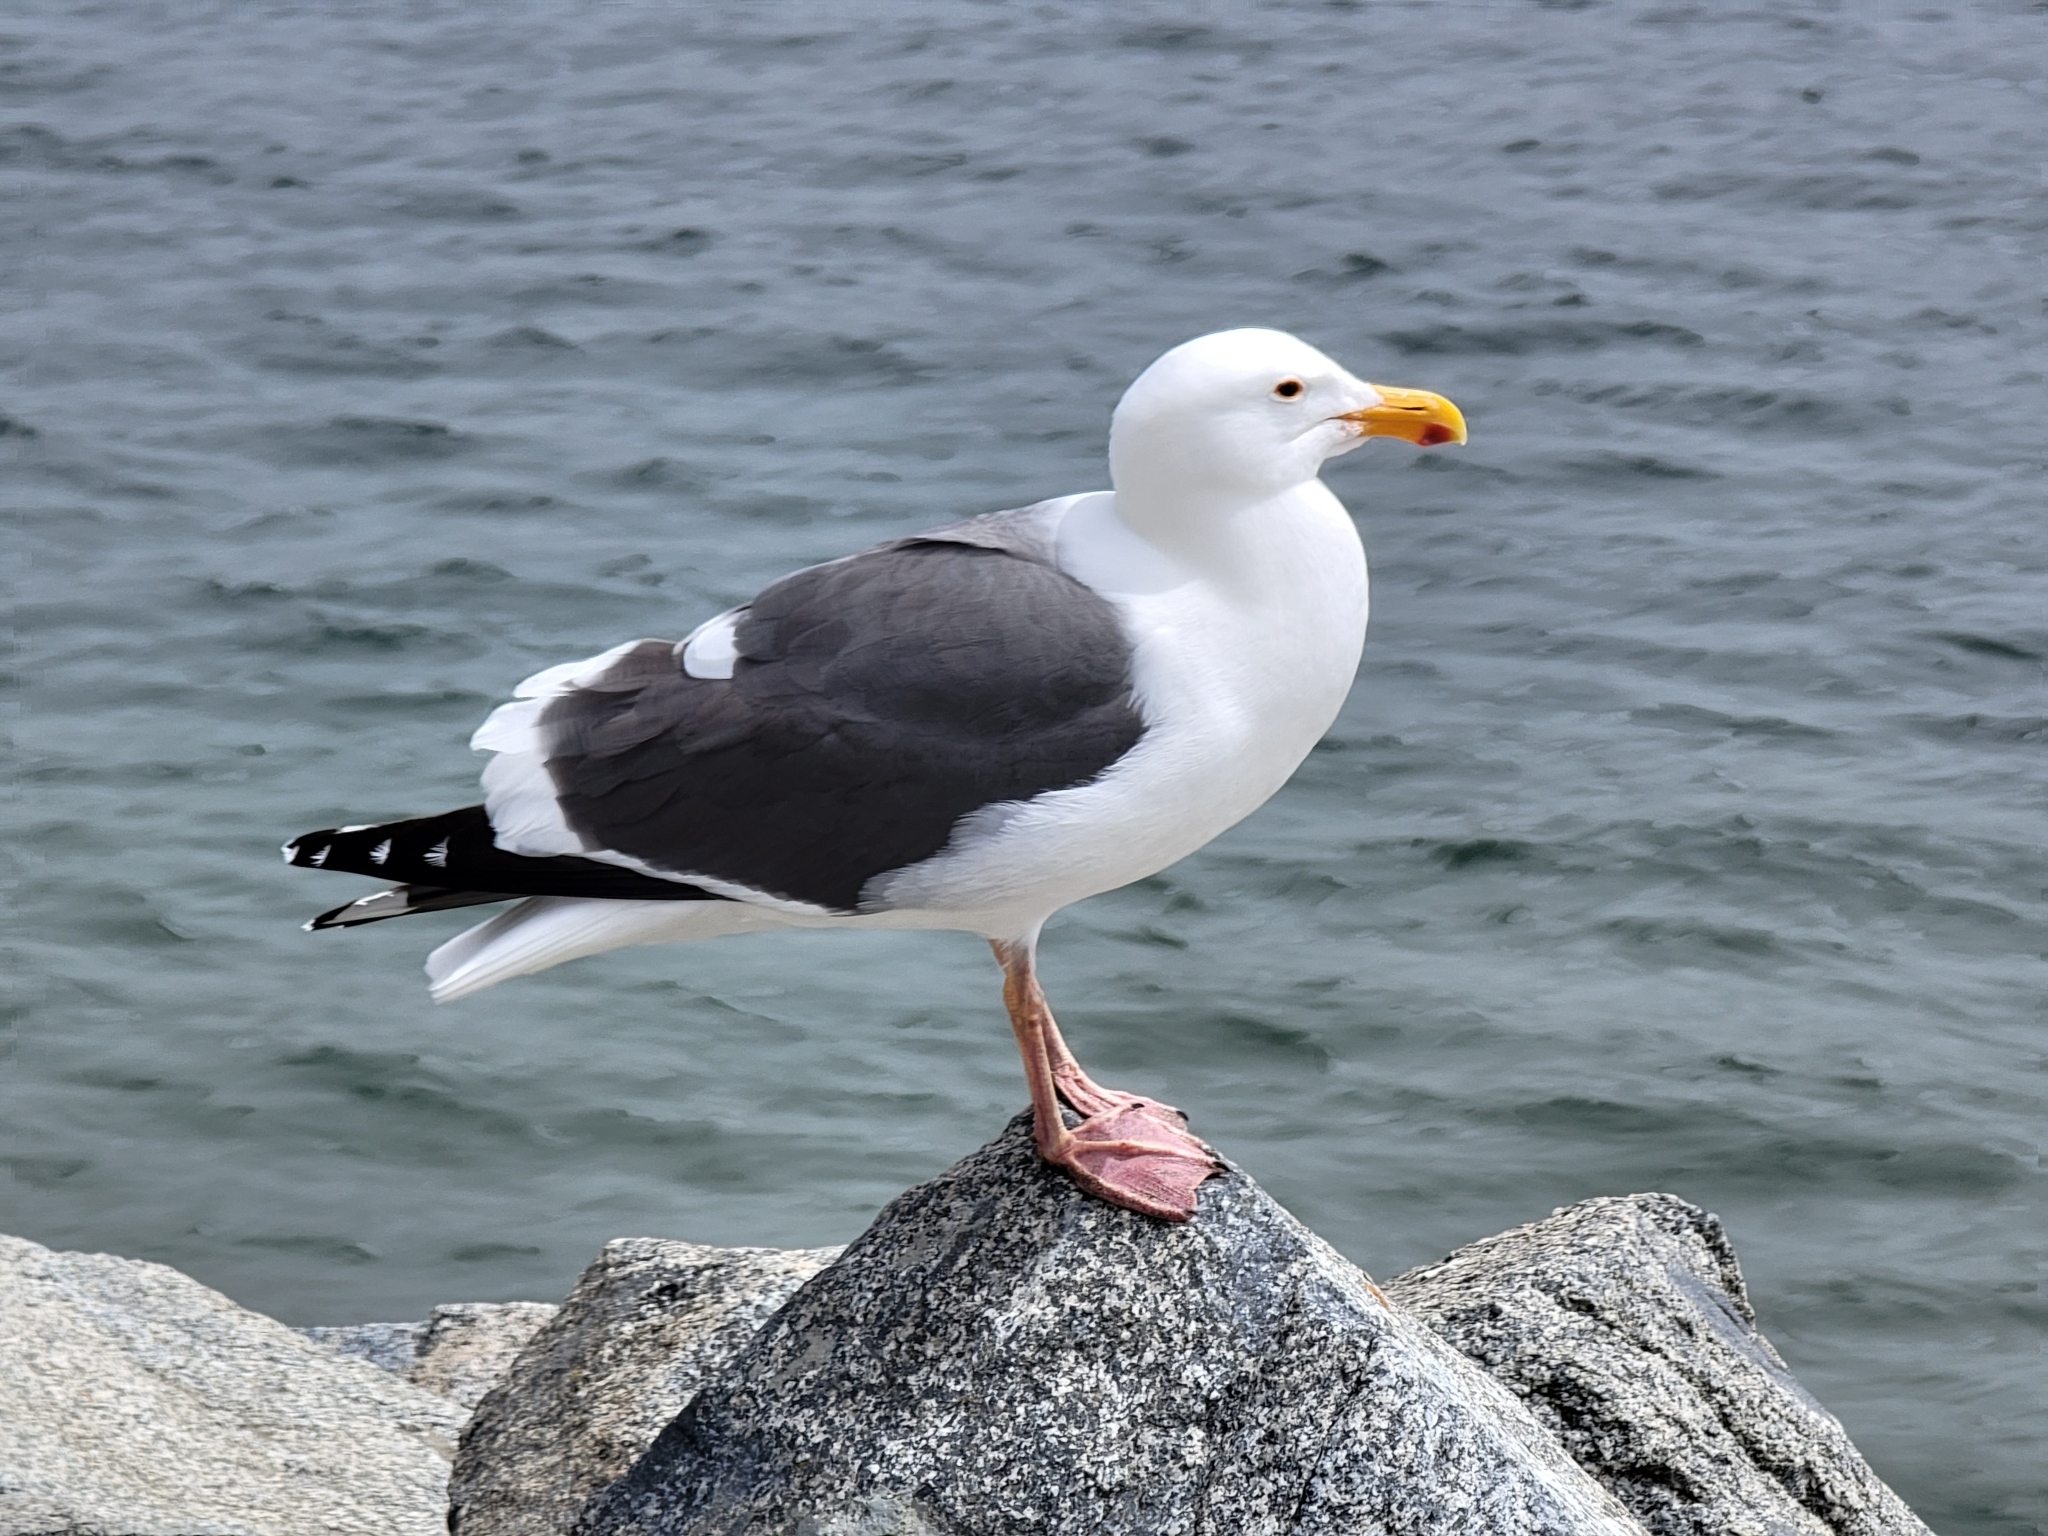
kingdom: Animalia
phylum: Chordata
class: Aves
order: Charadriiformes
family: Laridae
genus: Larus
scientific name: Larus occidentalis
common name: Western gull
